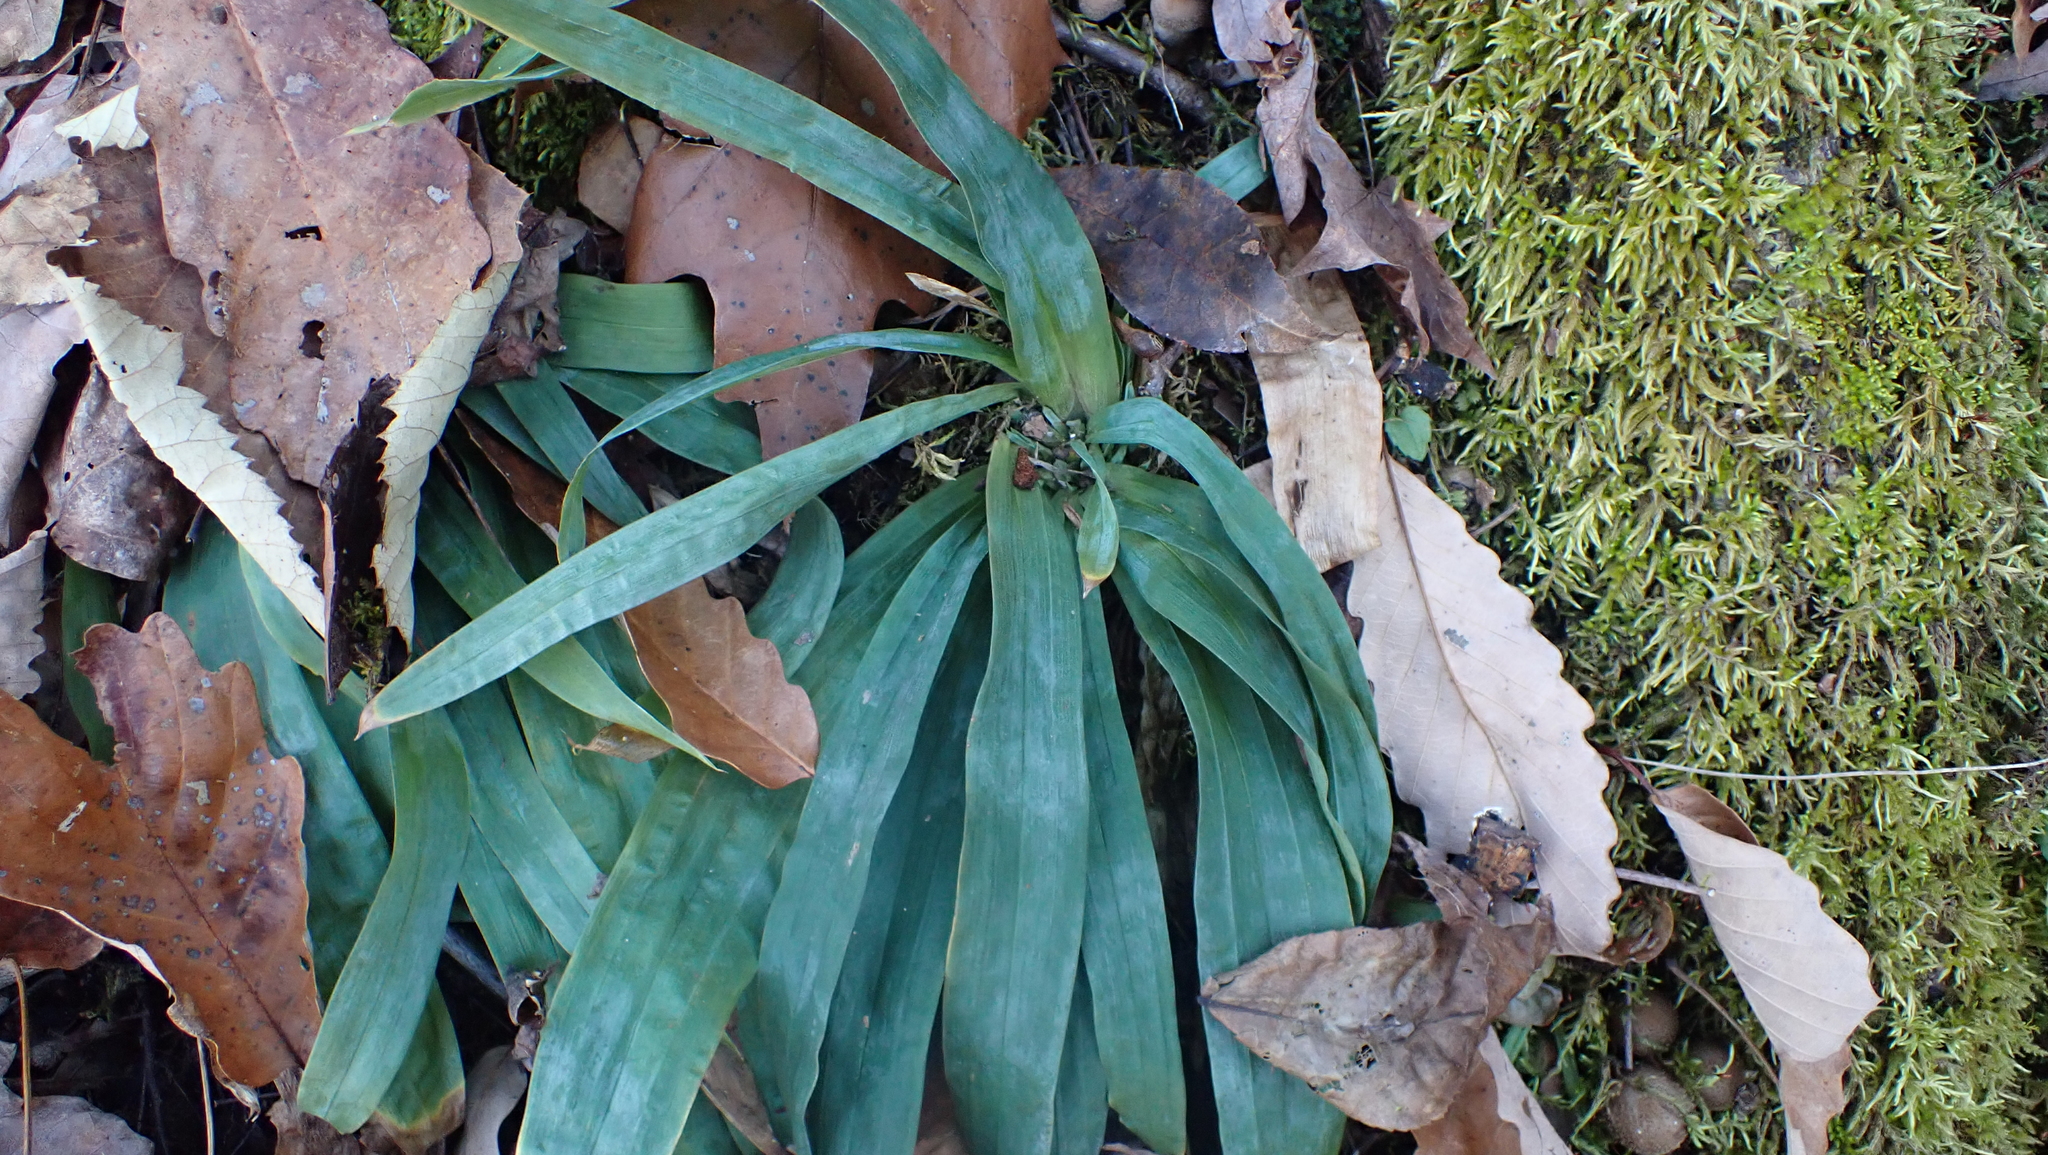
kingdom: Plantae
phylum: Tracheophyta
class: Liliopsida
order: Poales
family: Cyperaceae
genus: Carex
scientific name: Carex platyphylla
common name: Broad-leaved sedge
